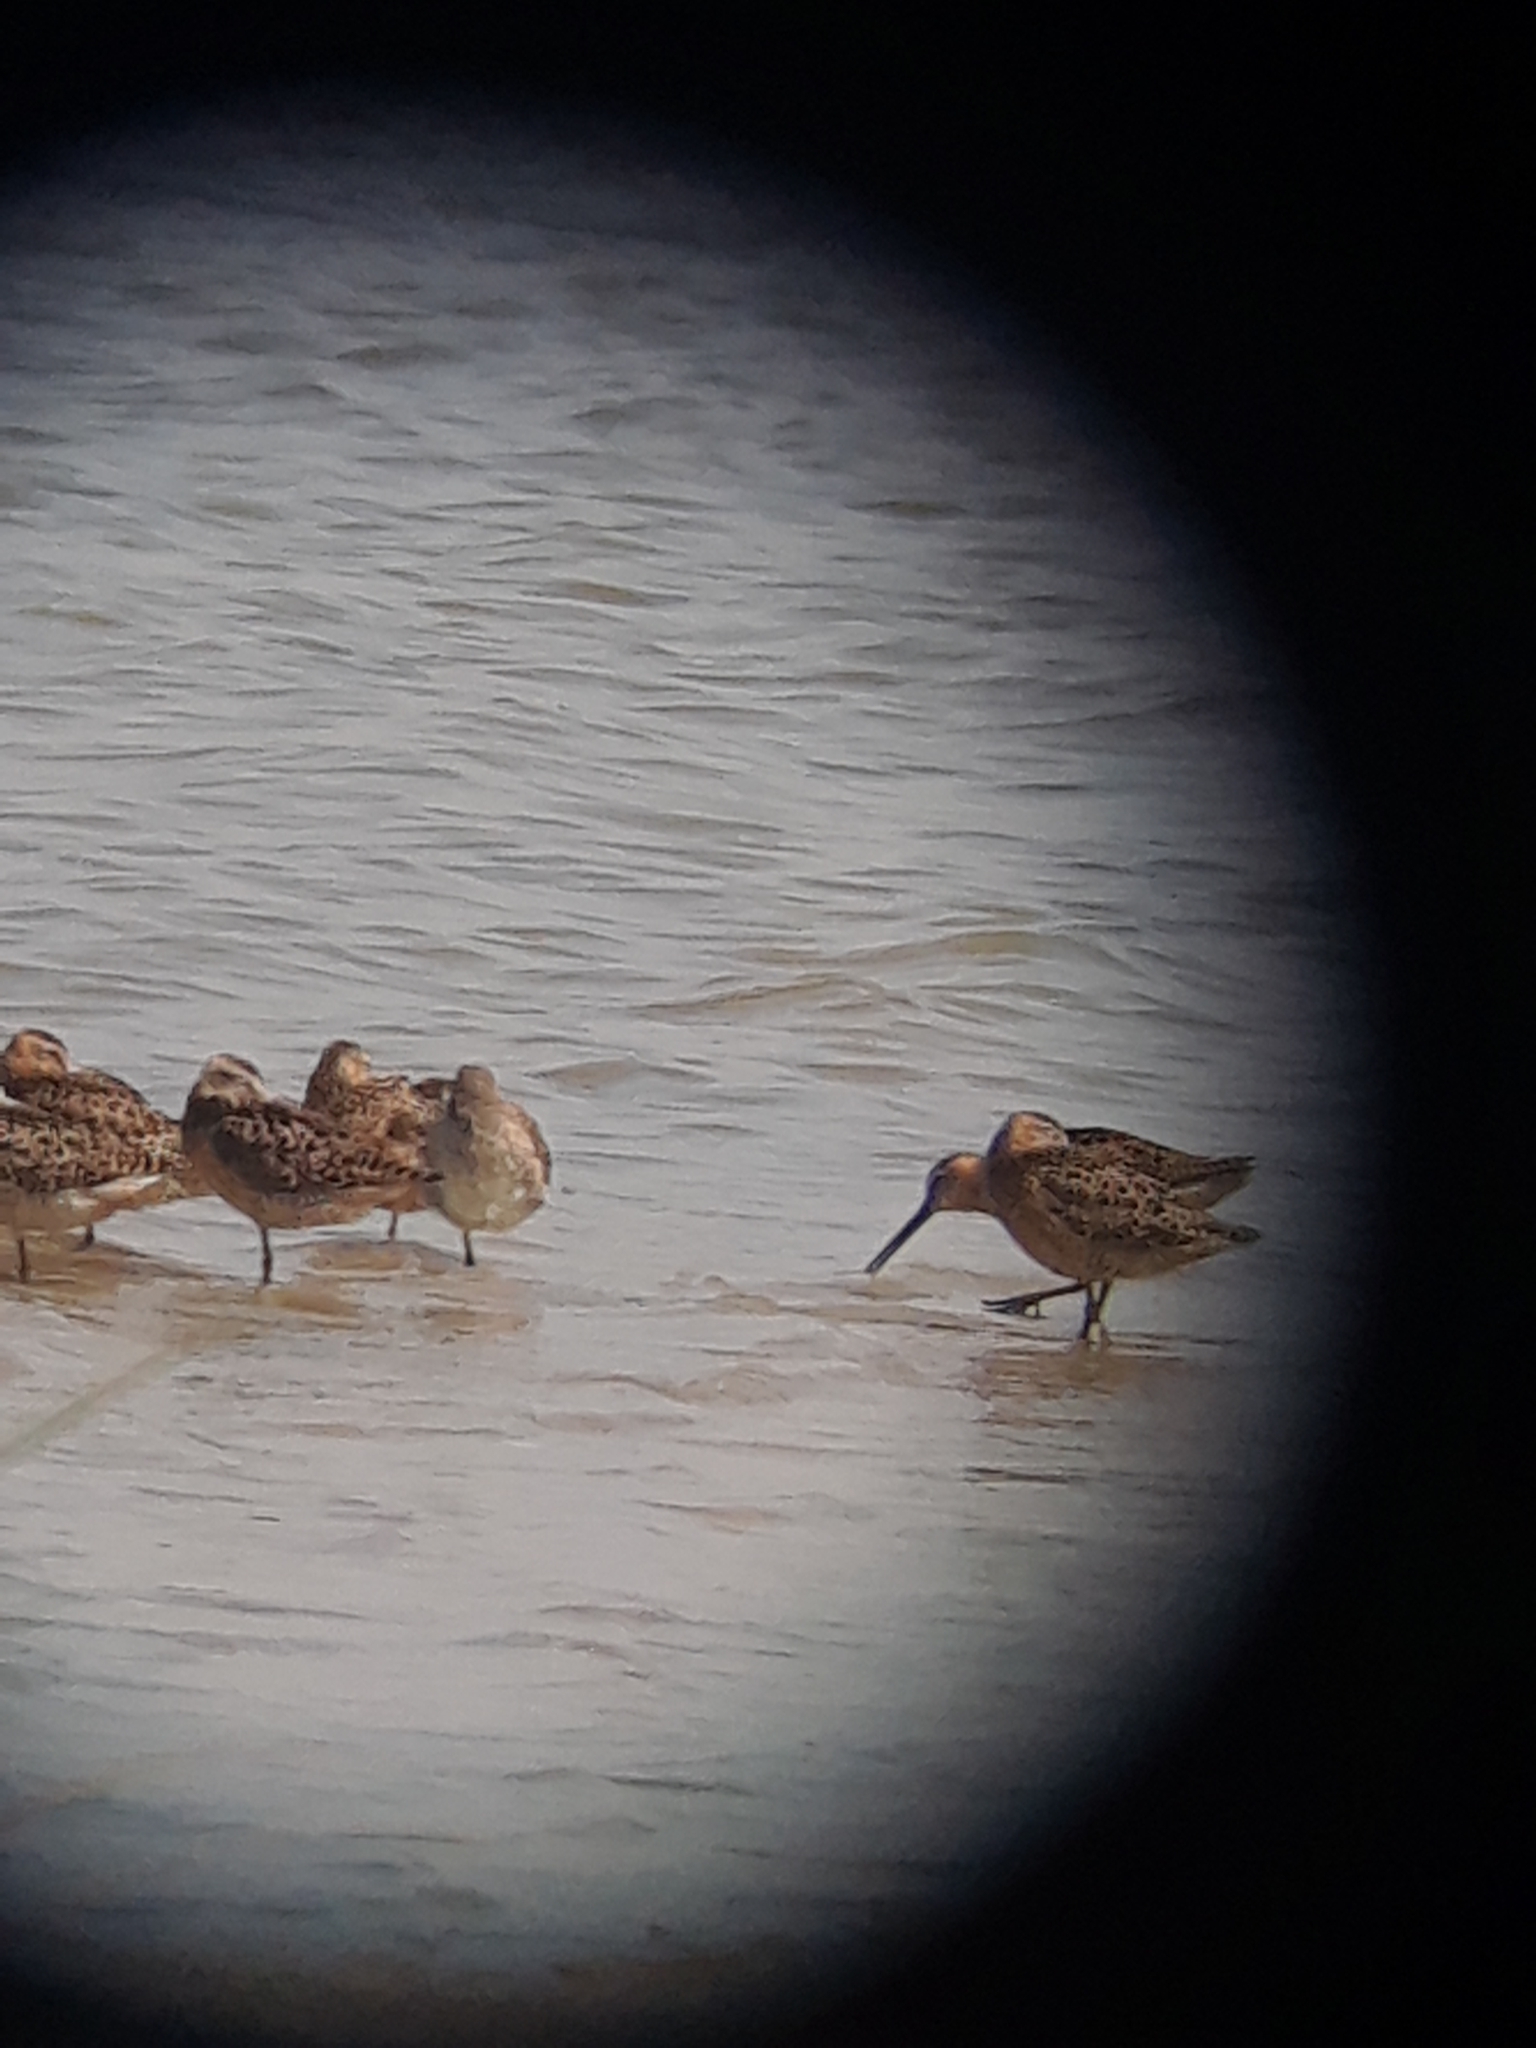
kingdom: Animalia
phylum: Chordata
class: Aves
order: Charadriiformes
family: Scolopacidae
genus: Limnodromus
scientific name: Limnodromus griseus
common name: Short-billed dowitcher
